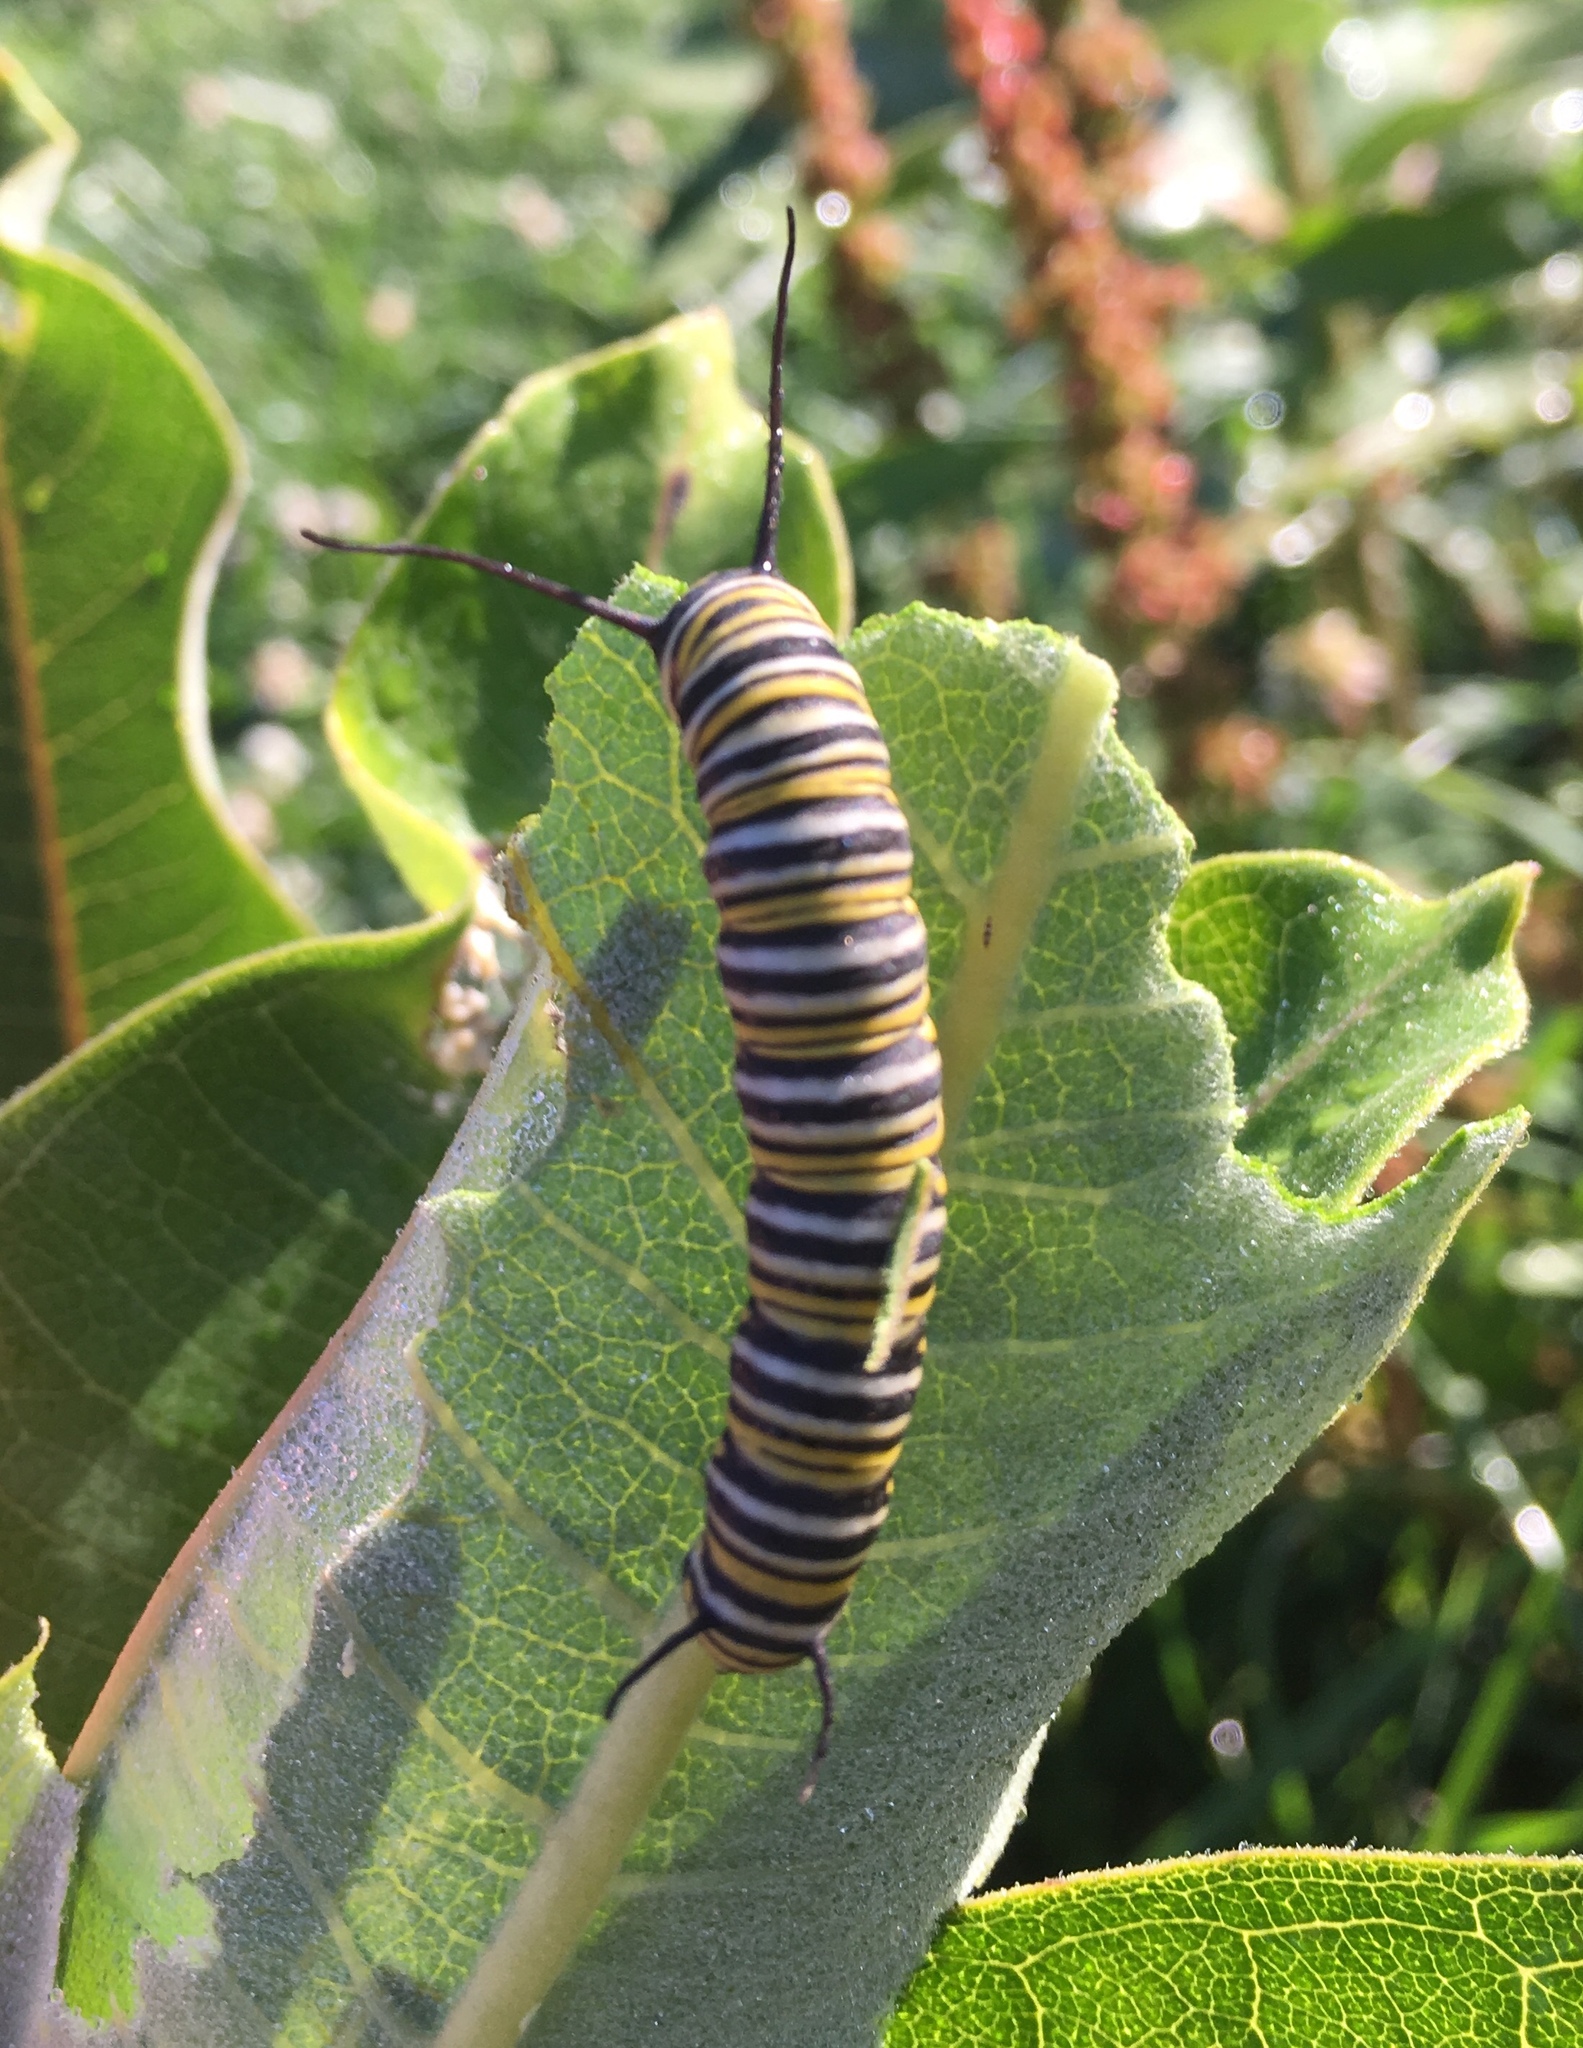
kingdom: Animalia
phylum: Arthropoda
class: Insecta
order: Lepidoptera
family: Nymphalidae
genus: Danaus
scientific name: Danaus plexippus
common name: Monarch
